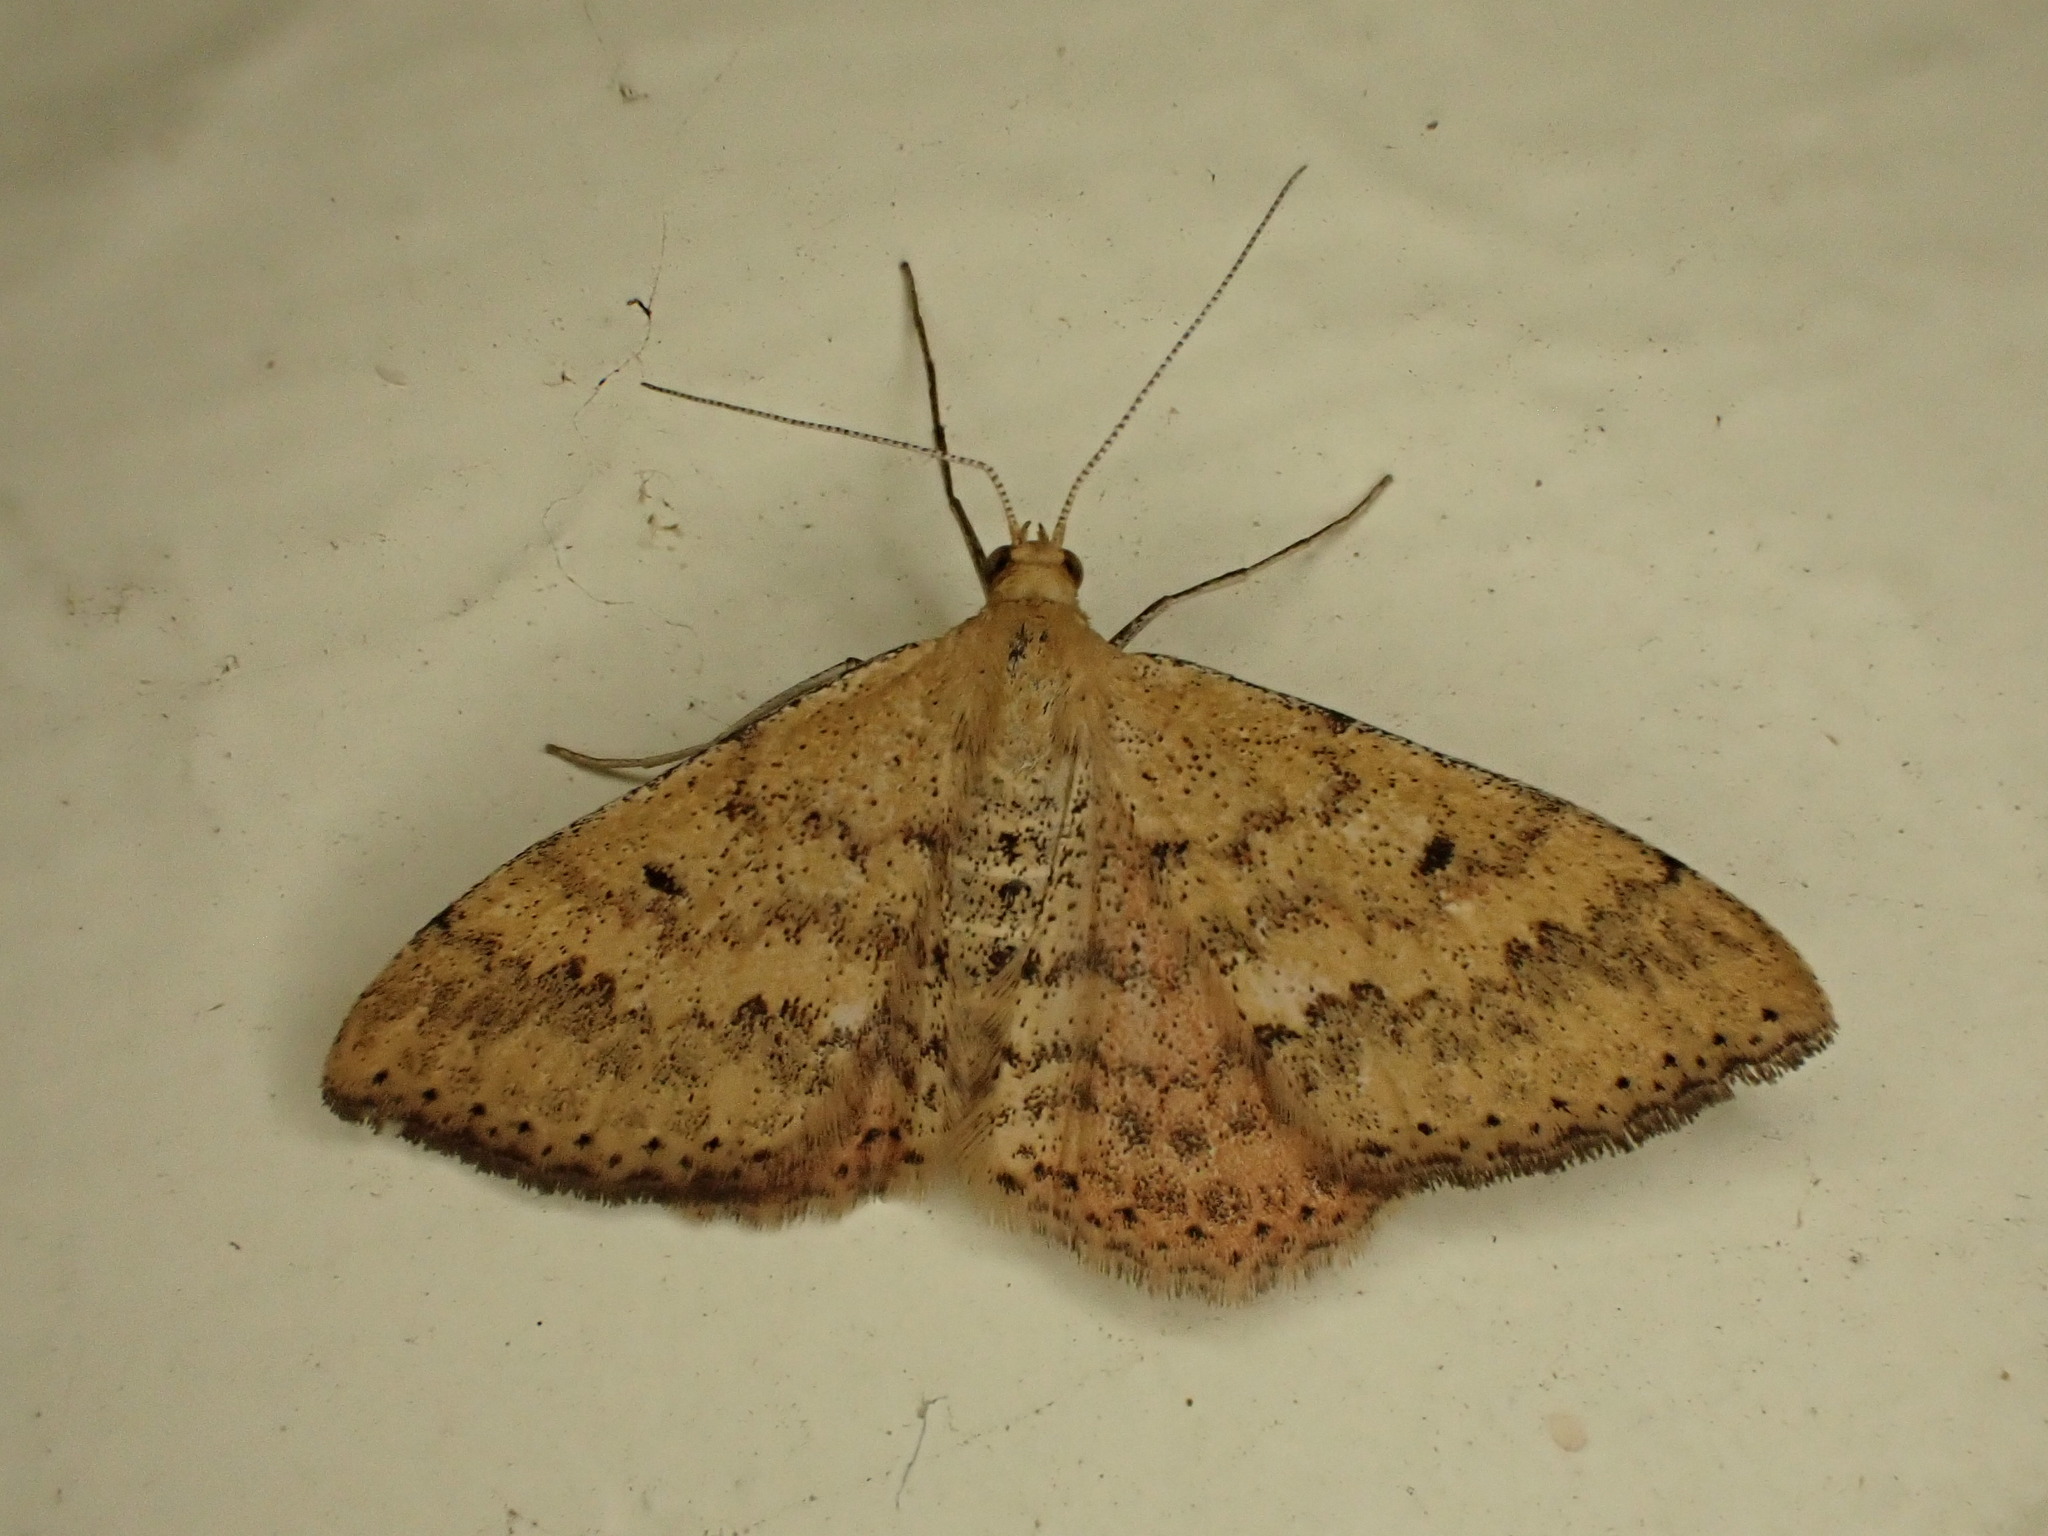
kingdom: Animalia
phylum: Arthropoda
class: Insecta
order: Lepidoptera
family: Geometridae
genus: Scopula
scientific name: Scopula rubraria
